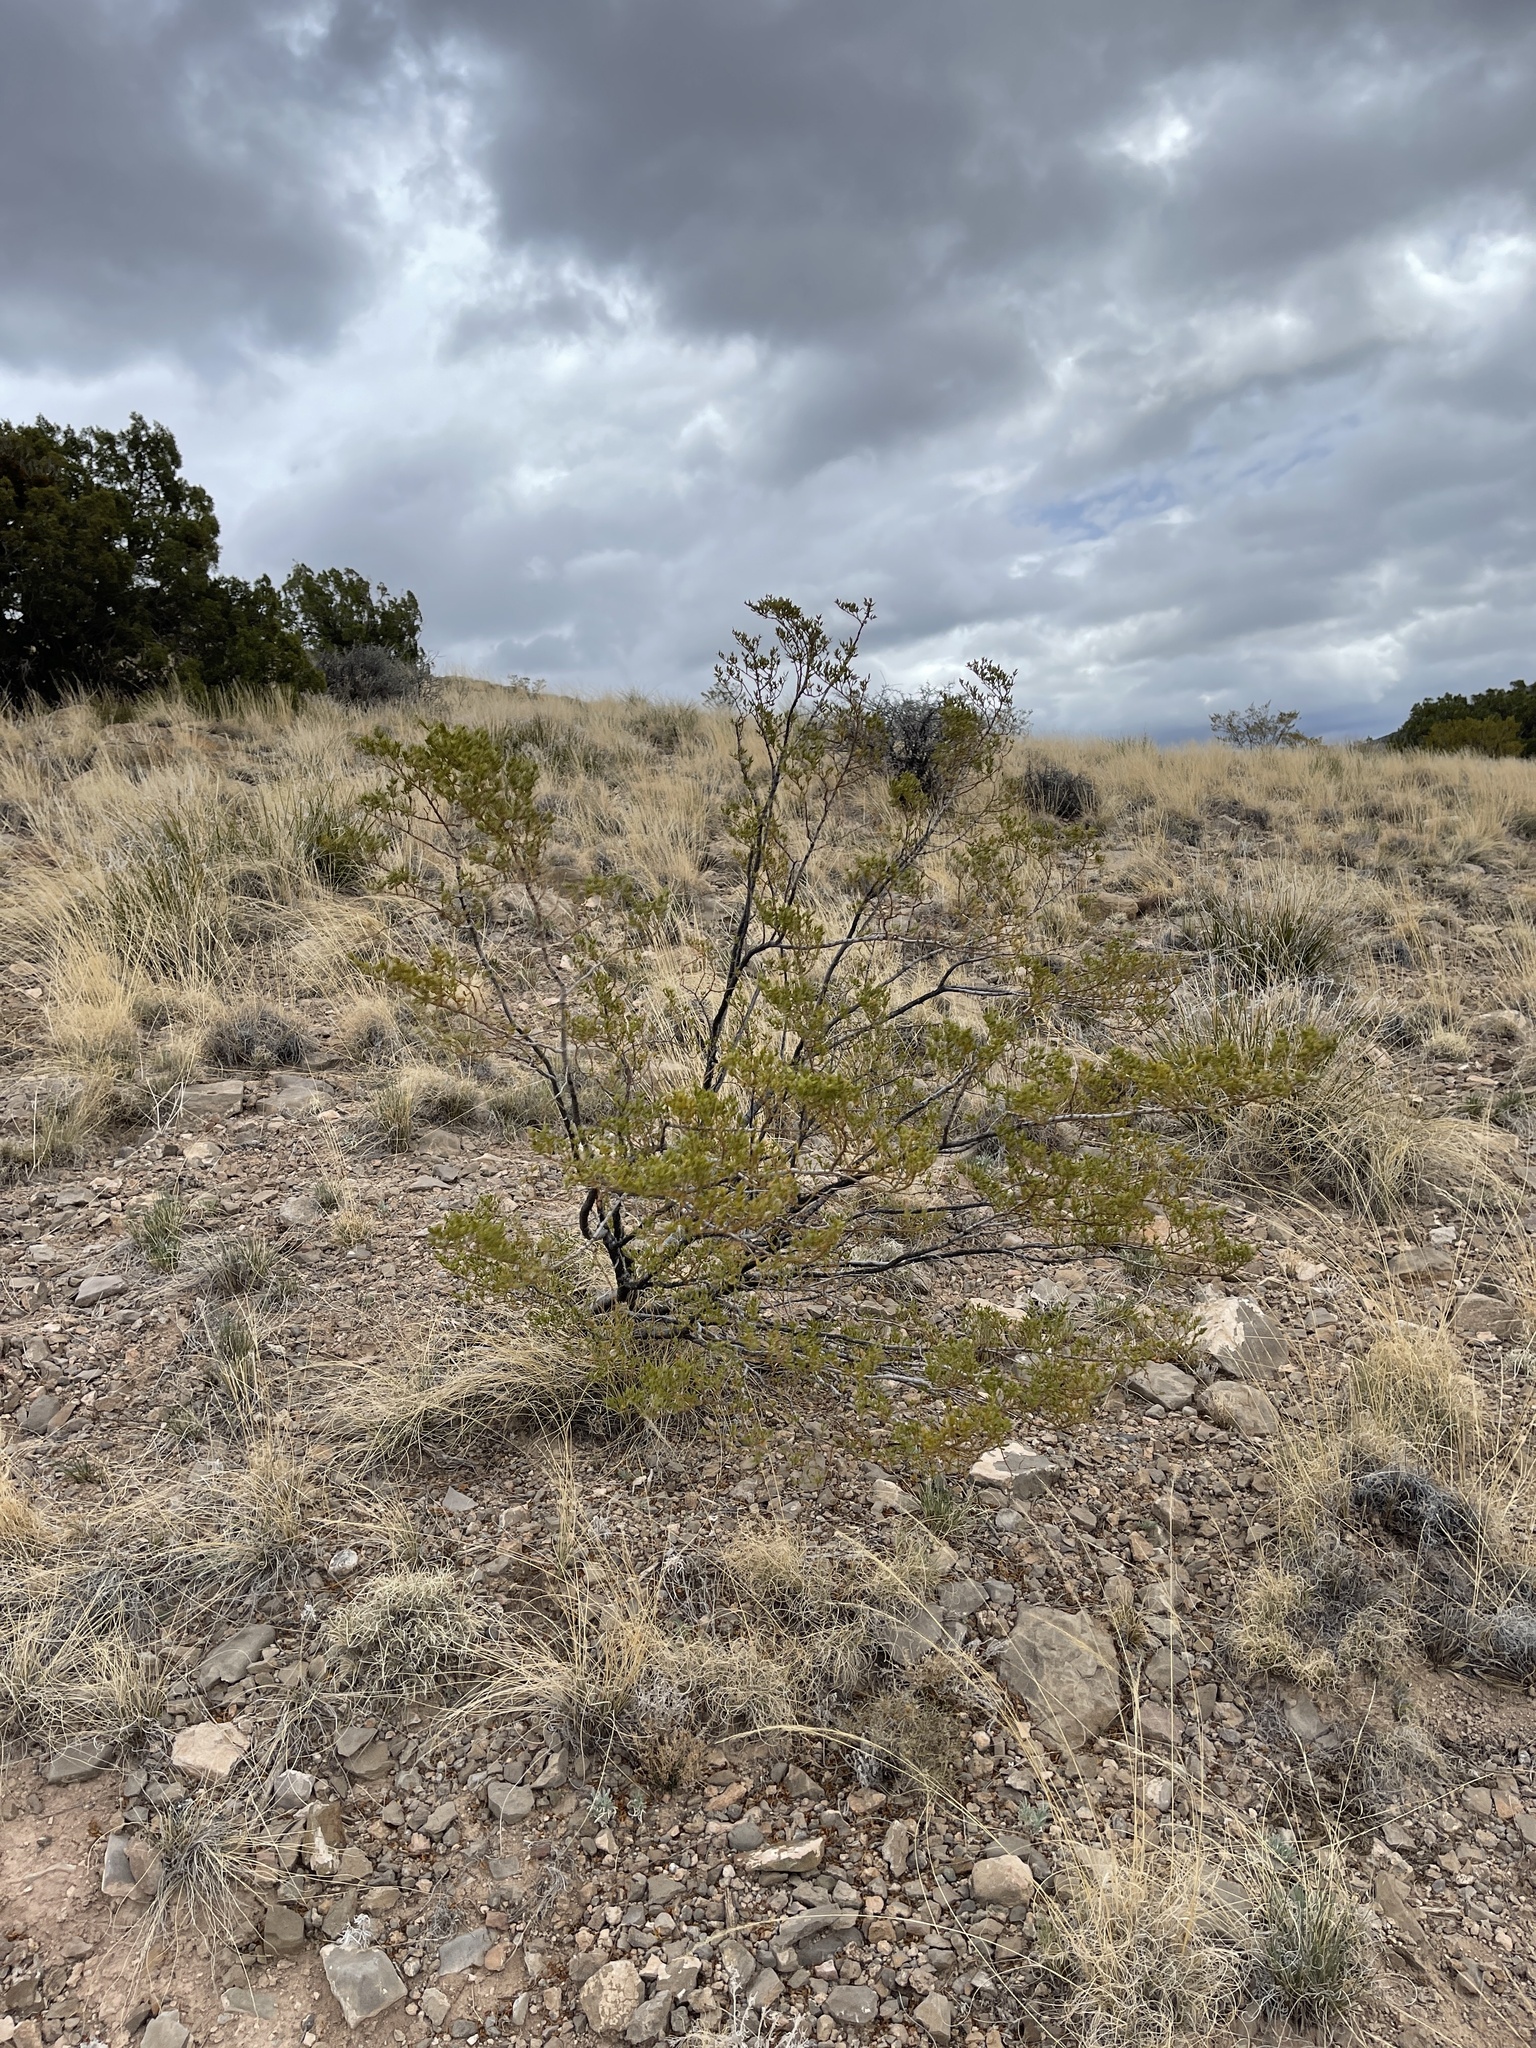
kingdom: Plantae
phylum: Tracheophyta
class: Magnoliopsida
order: Zygophyllales
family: Zygophyllaceae
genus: Larrea
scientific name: Larrea tridentata
